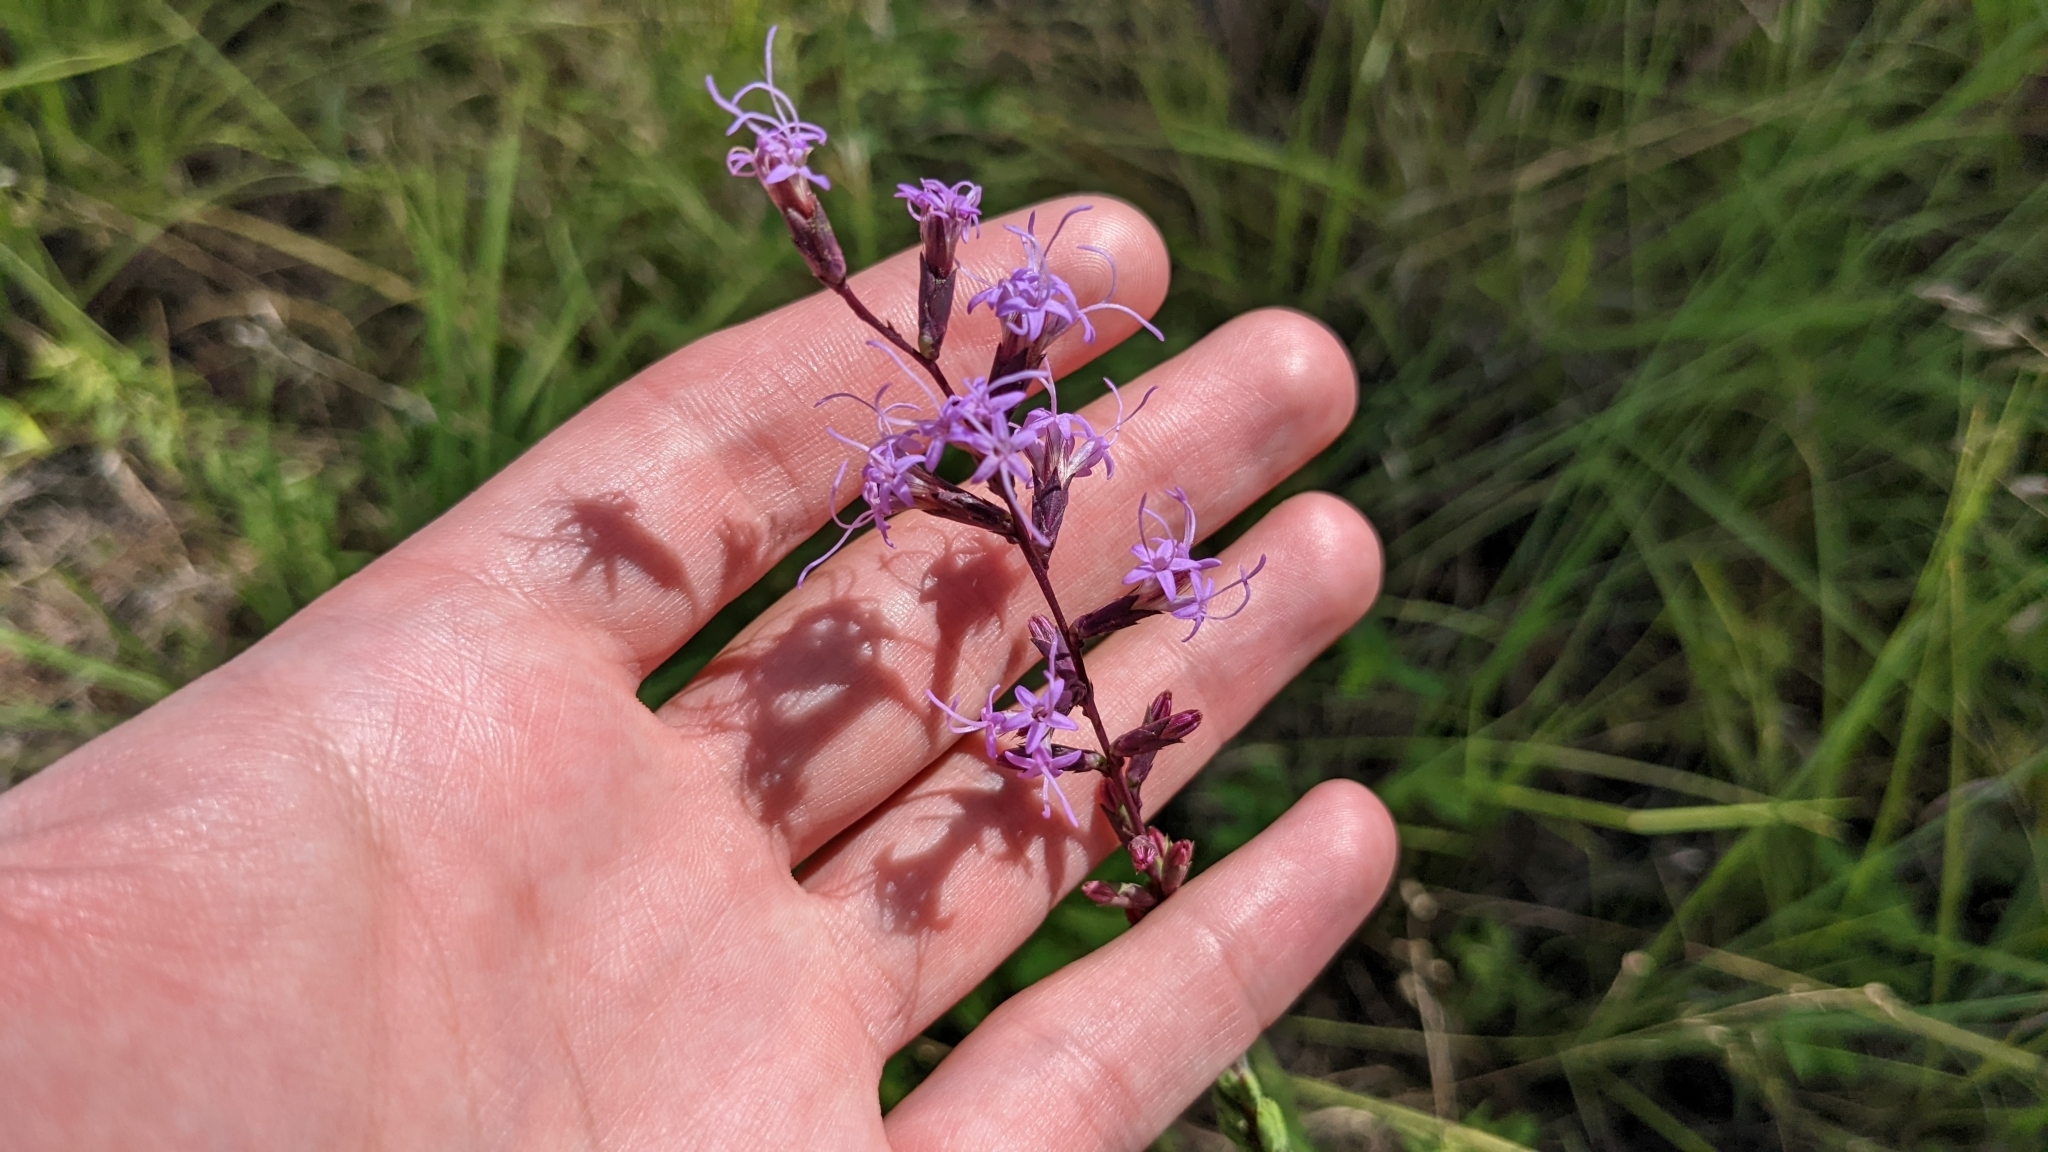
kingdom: Plantae
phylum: Tracheophyta
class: Magnoliopsida
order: Asterales
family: Asteraceae
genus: Liatris
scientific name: Liatris acidota
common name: Gulf coast gayfeather
